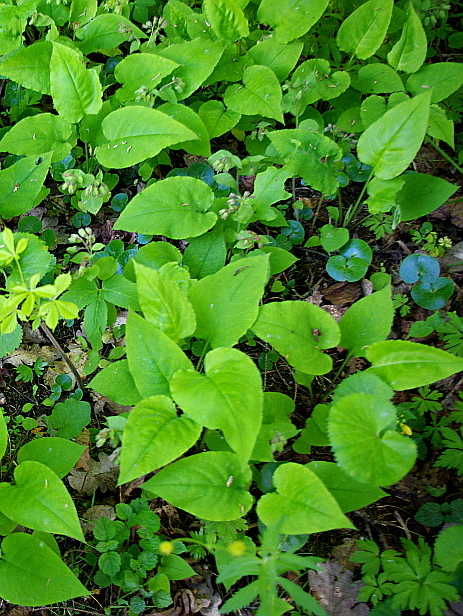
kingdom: Plantae
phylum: Tracheophyta
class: Magnoliopsida
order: Boraginales
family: Boraginaceae
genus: Pulmonaria
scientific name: Pulmonaria obscura
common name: Suffolk lungwort
